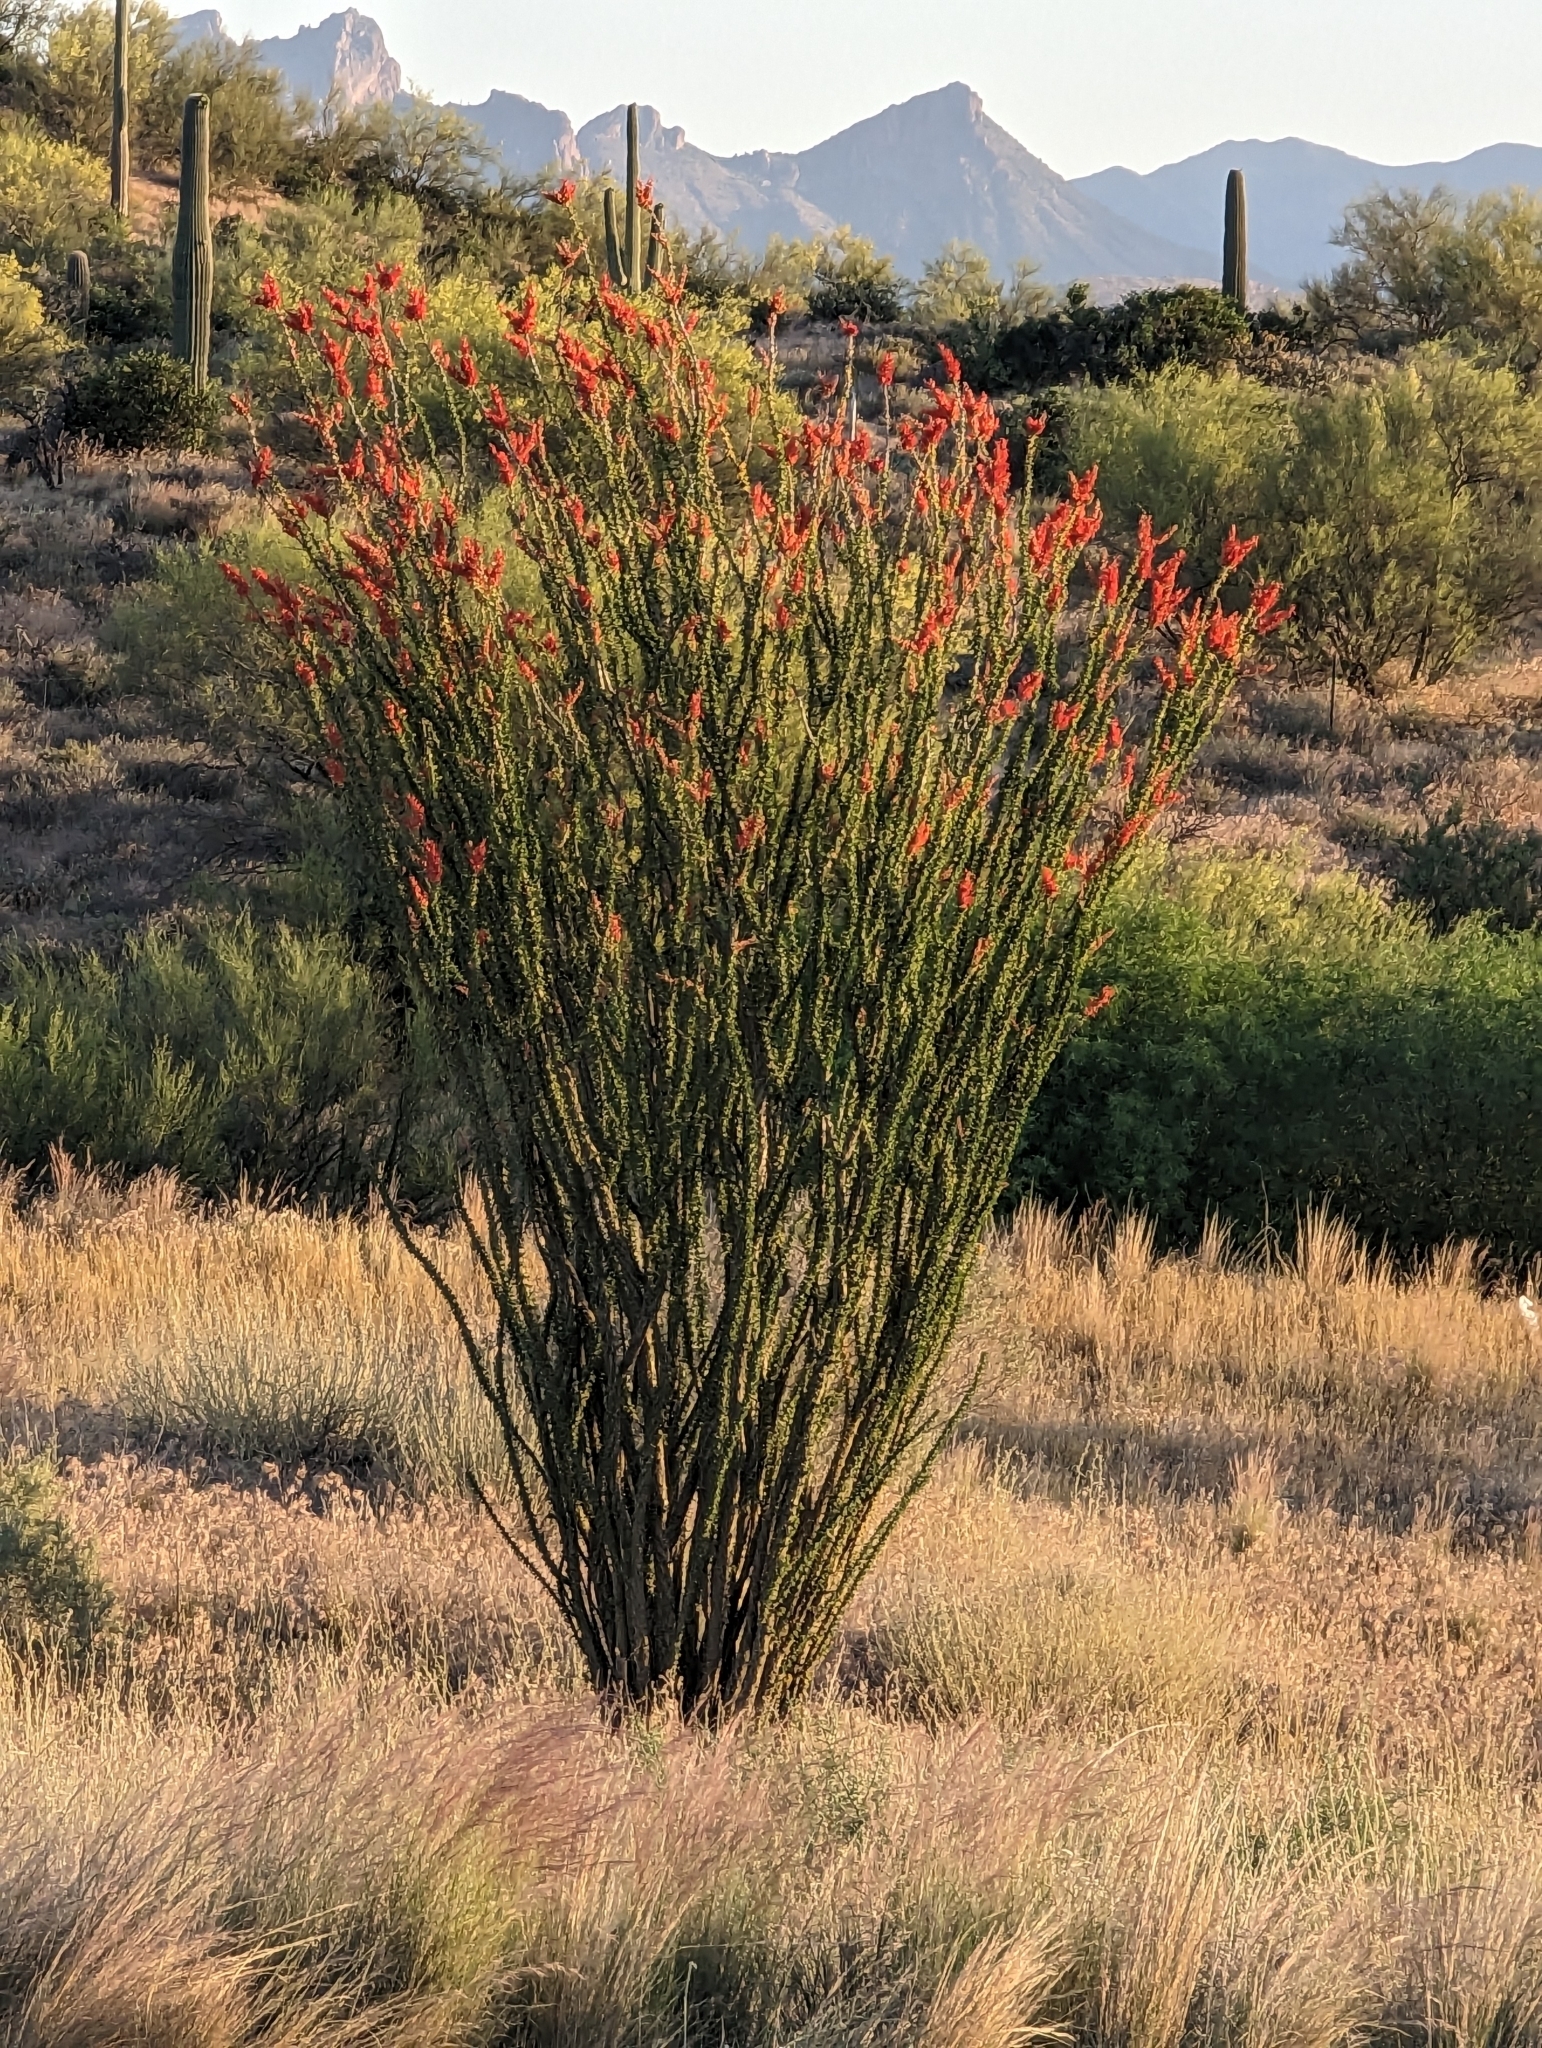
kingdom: Plantae
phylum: Tracheophyta
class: Magnoliopsida
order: Ericales
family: Fouquieriaceae
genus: Fouquieria
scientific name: Fouquieria splendens
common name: Vine-cactus
